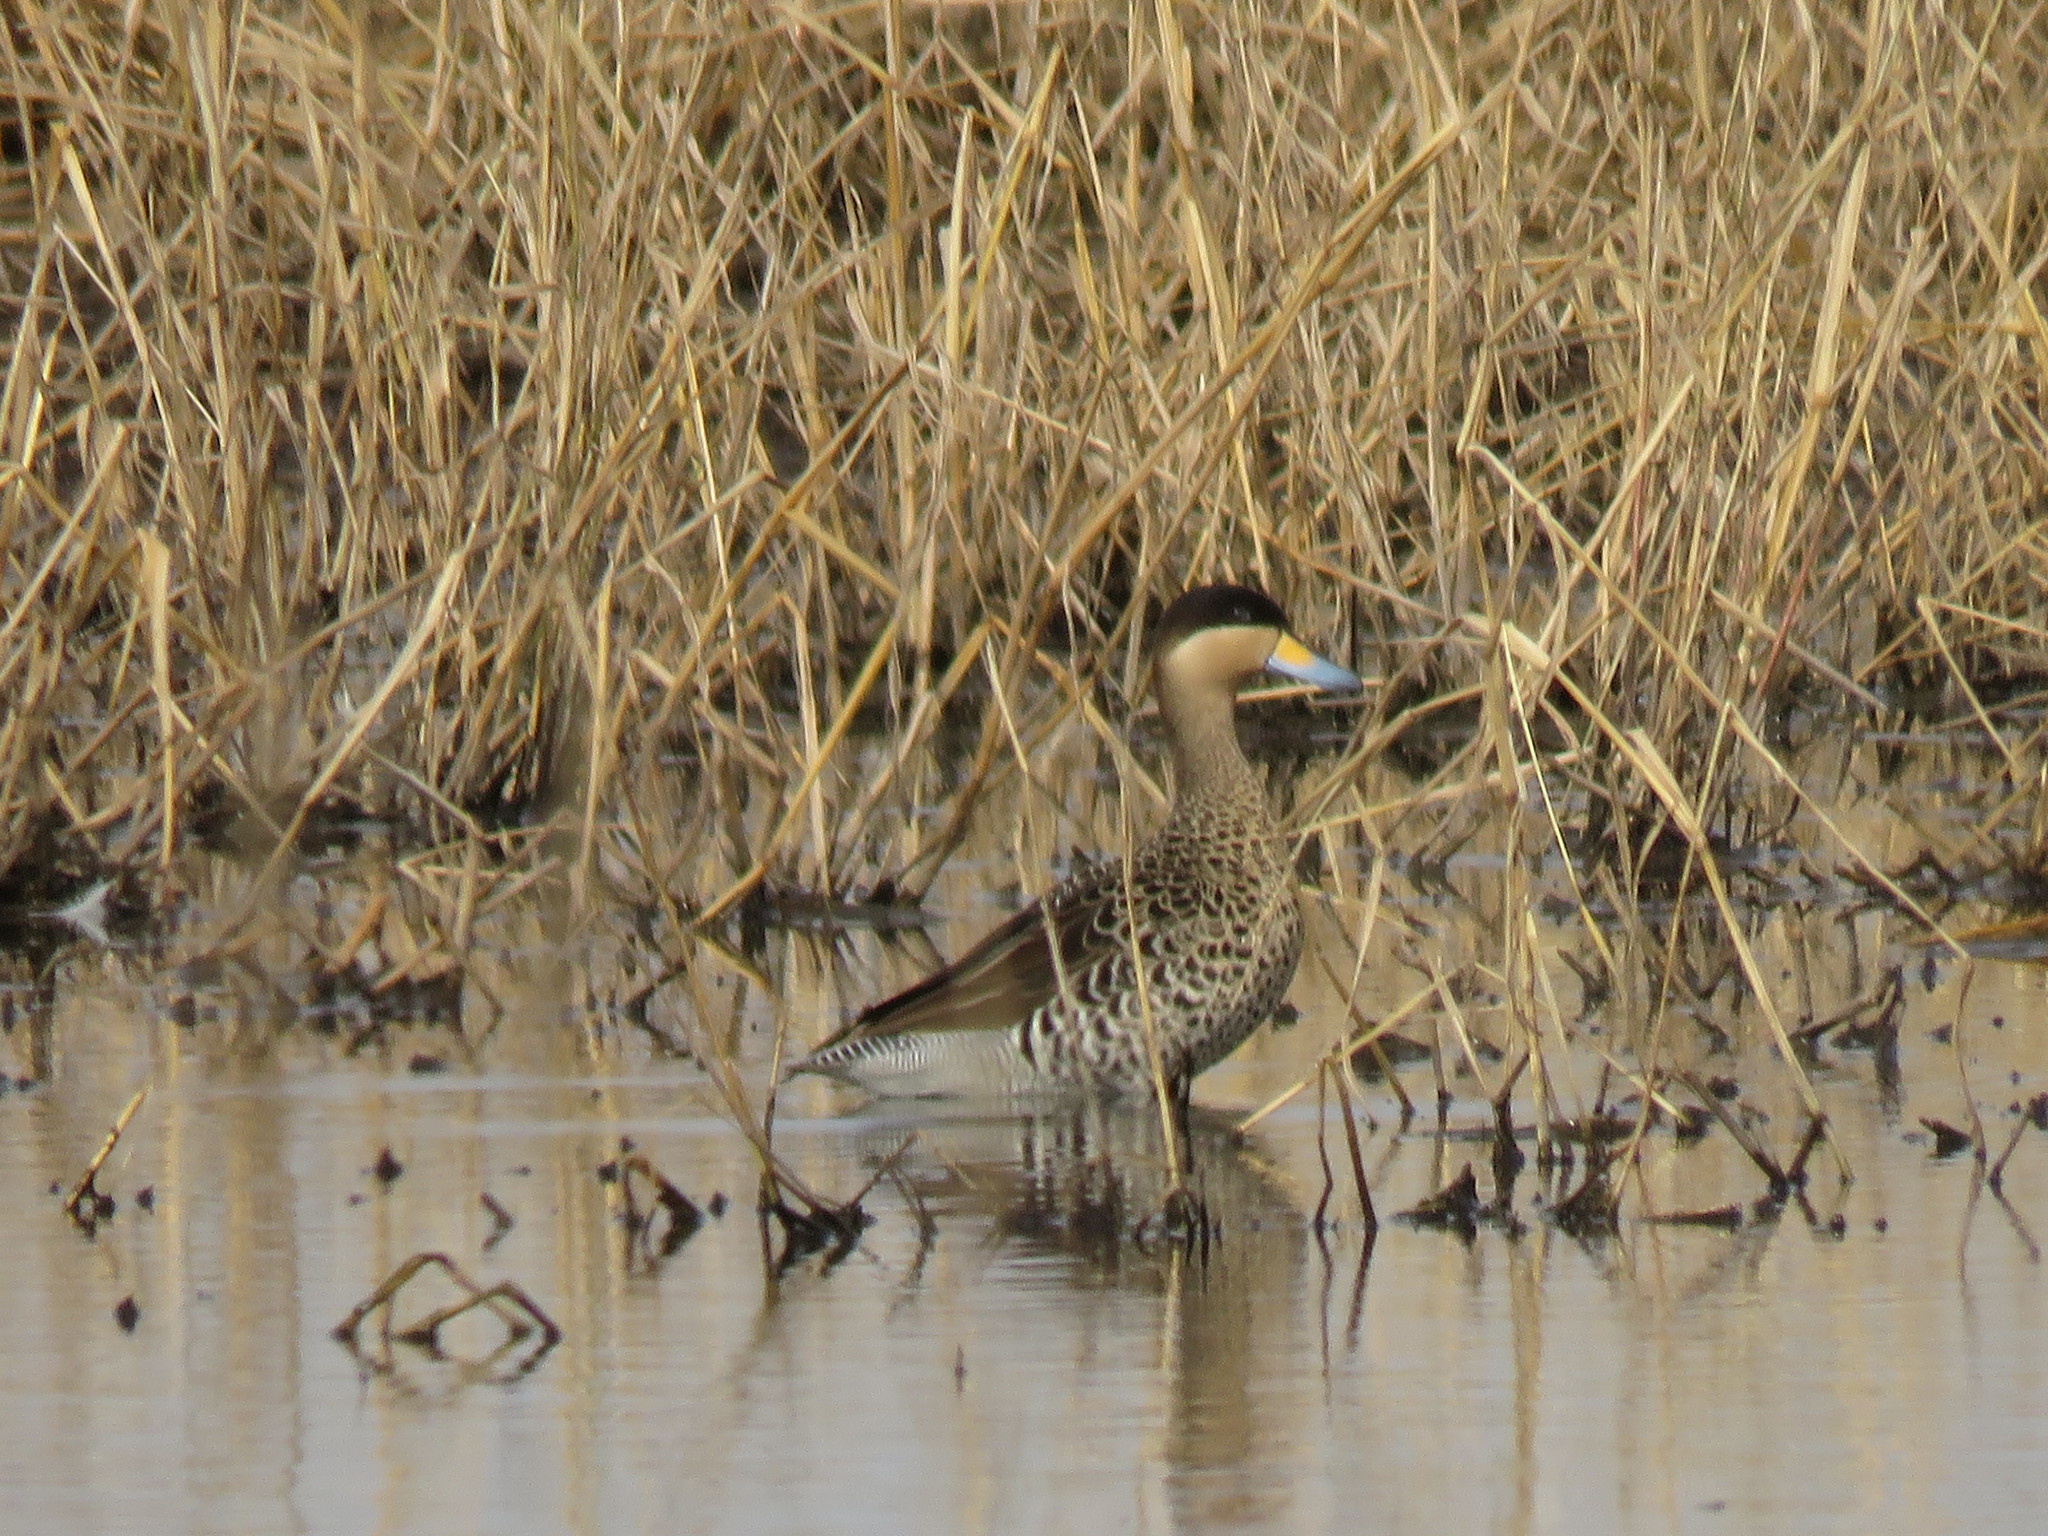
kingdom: Animalia
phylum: Chordata
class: Aves
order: Anseriformes
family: Anatidae
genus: Spatula
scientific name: Spatula versicolor
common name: Silver teal
